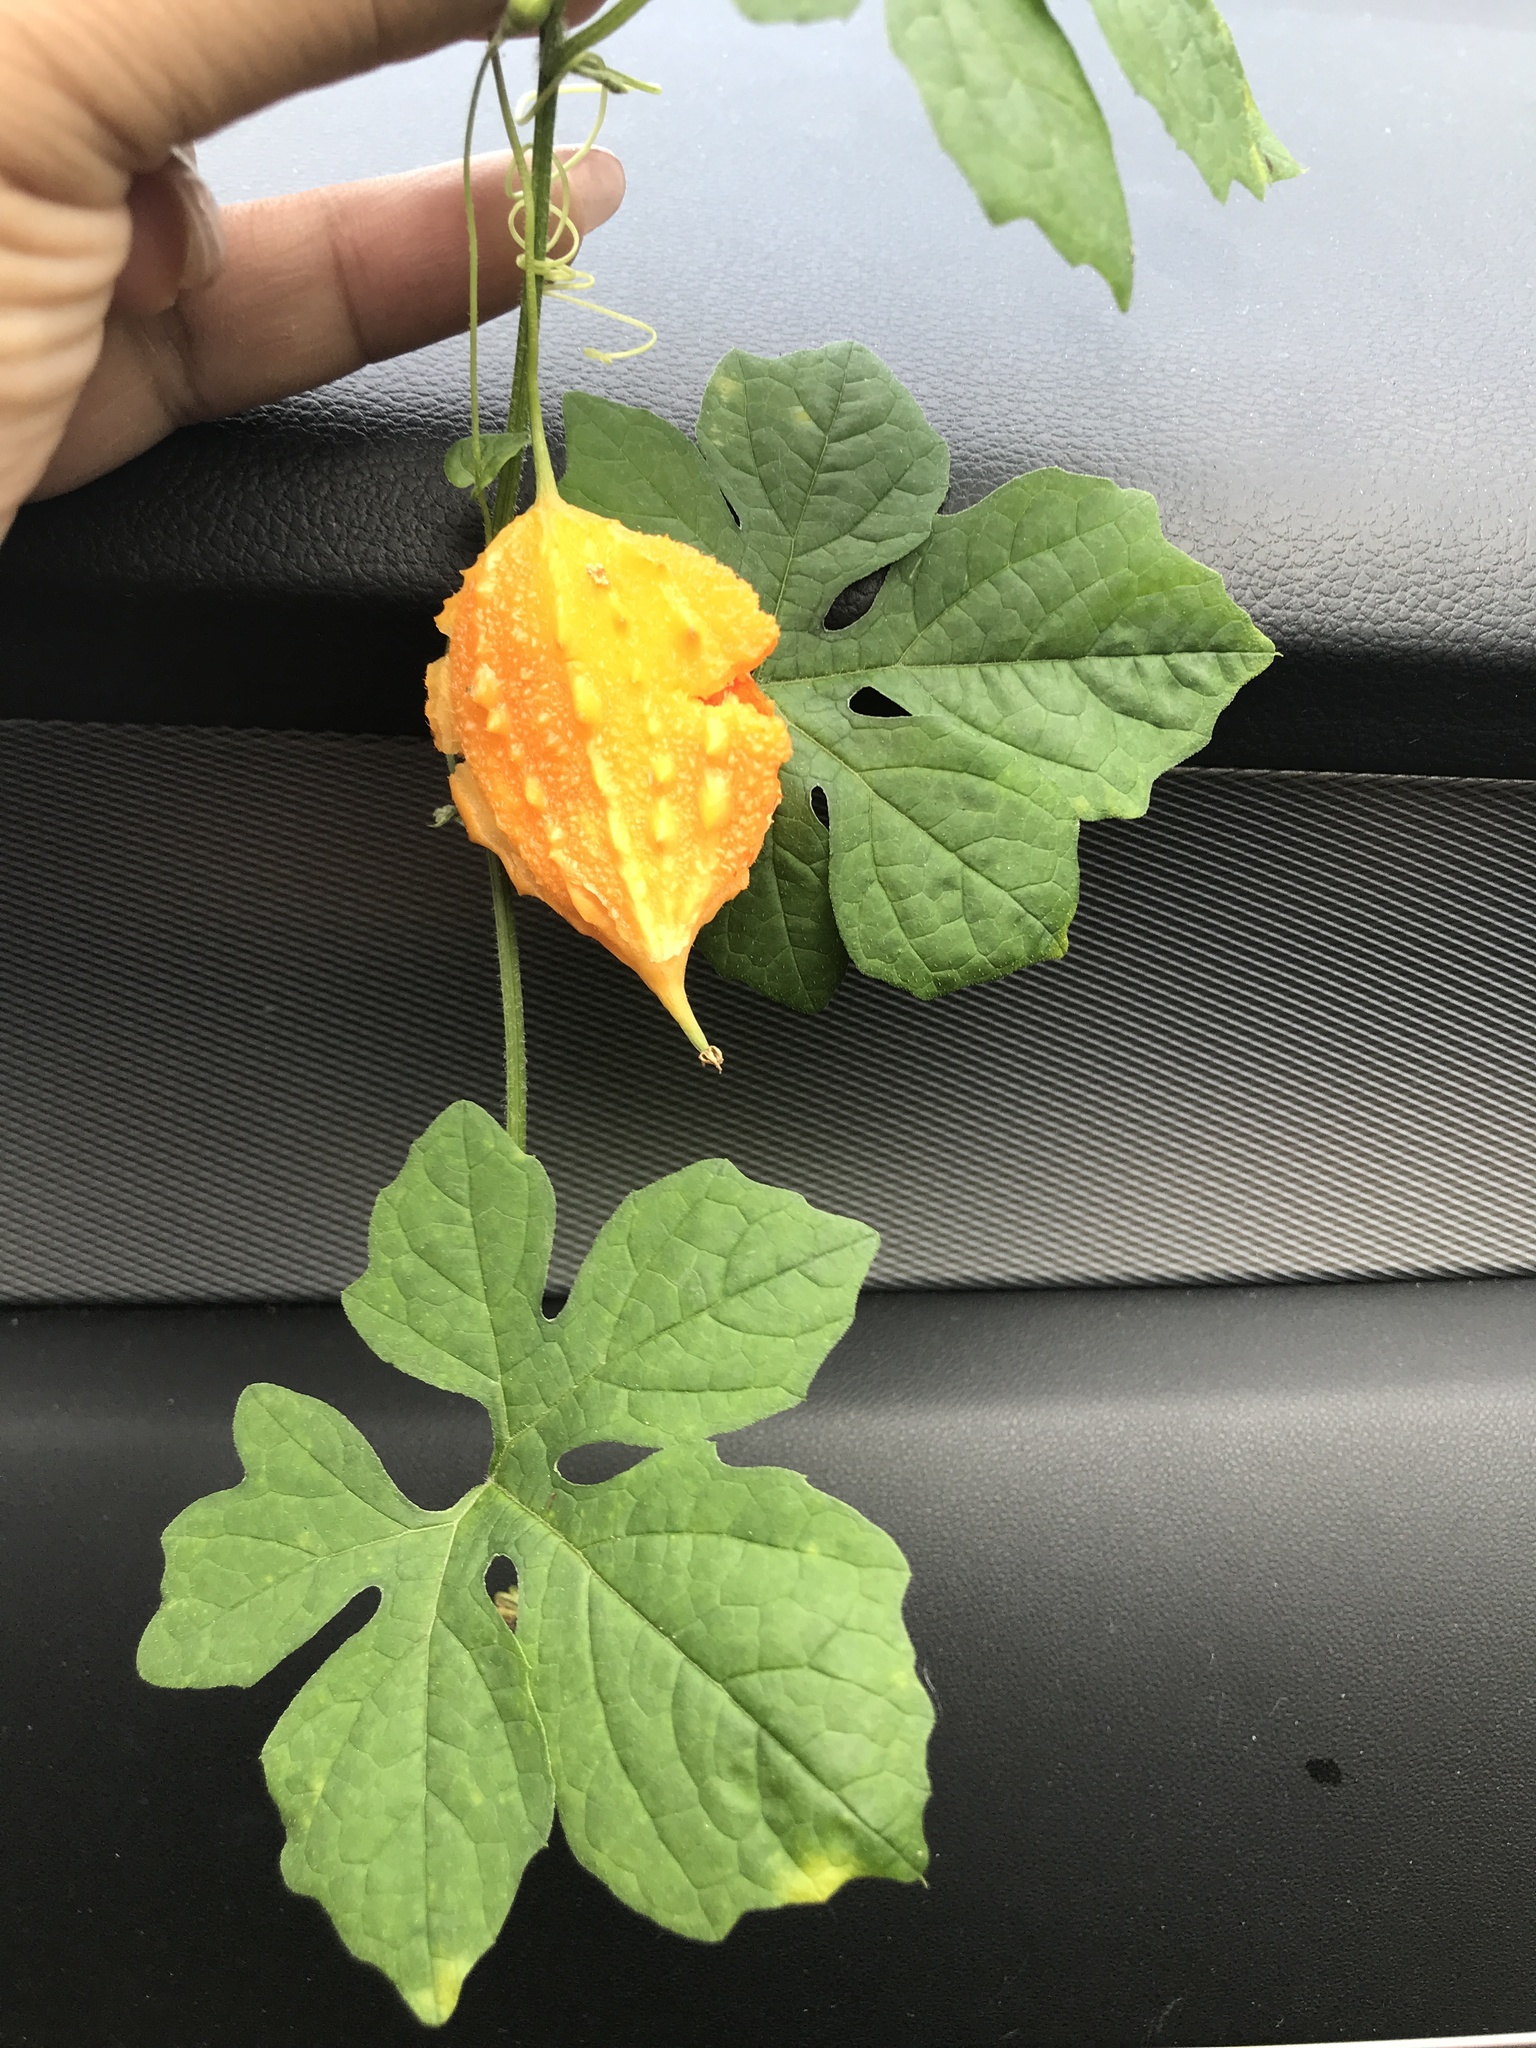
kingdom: Plantae
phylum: Tracheophyta
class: Magnoliopsida
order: Cucurbitales
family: Cucurbitaceae
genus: Momordica
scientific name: Momordica charantia
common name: Balsampear
